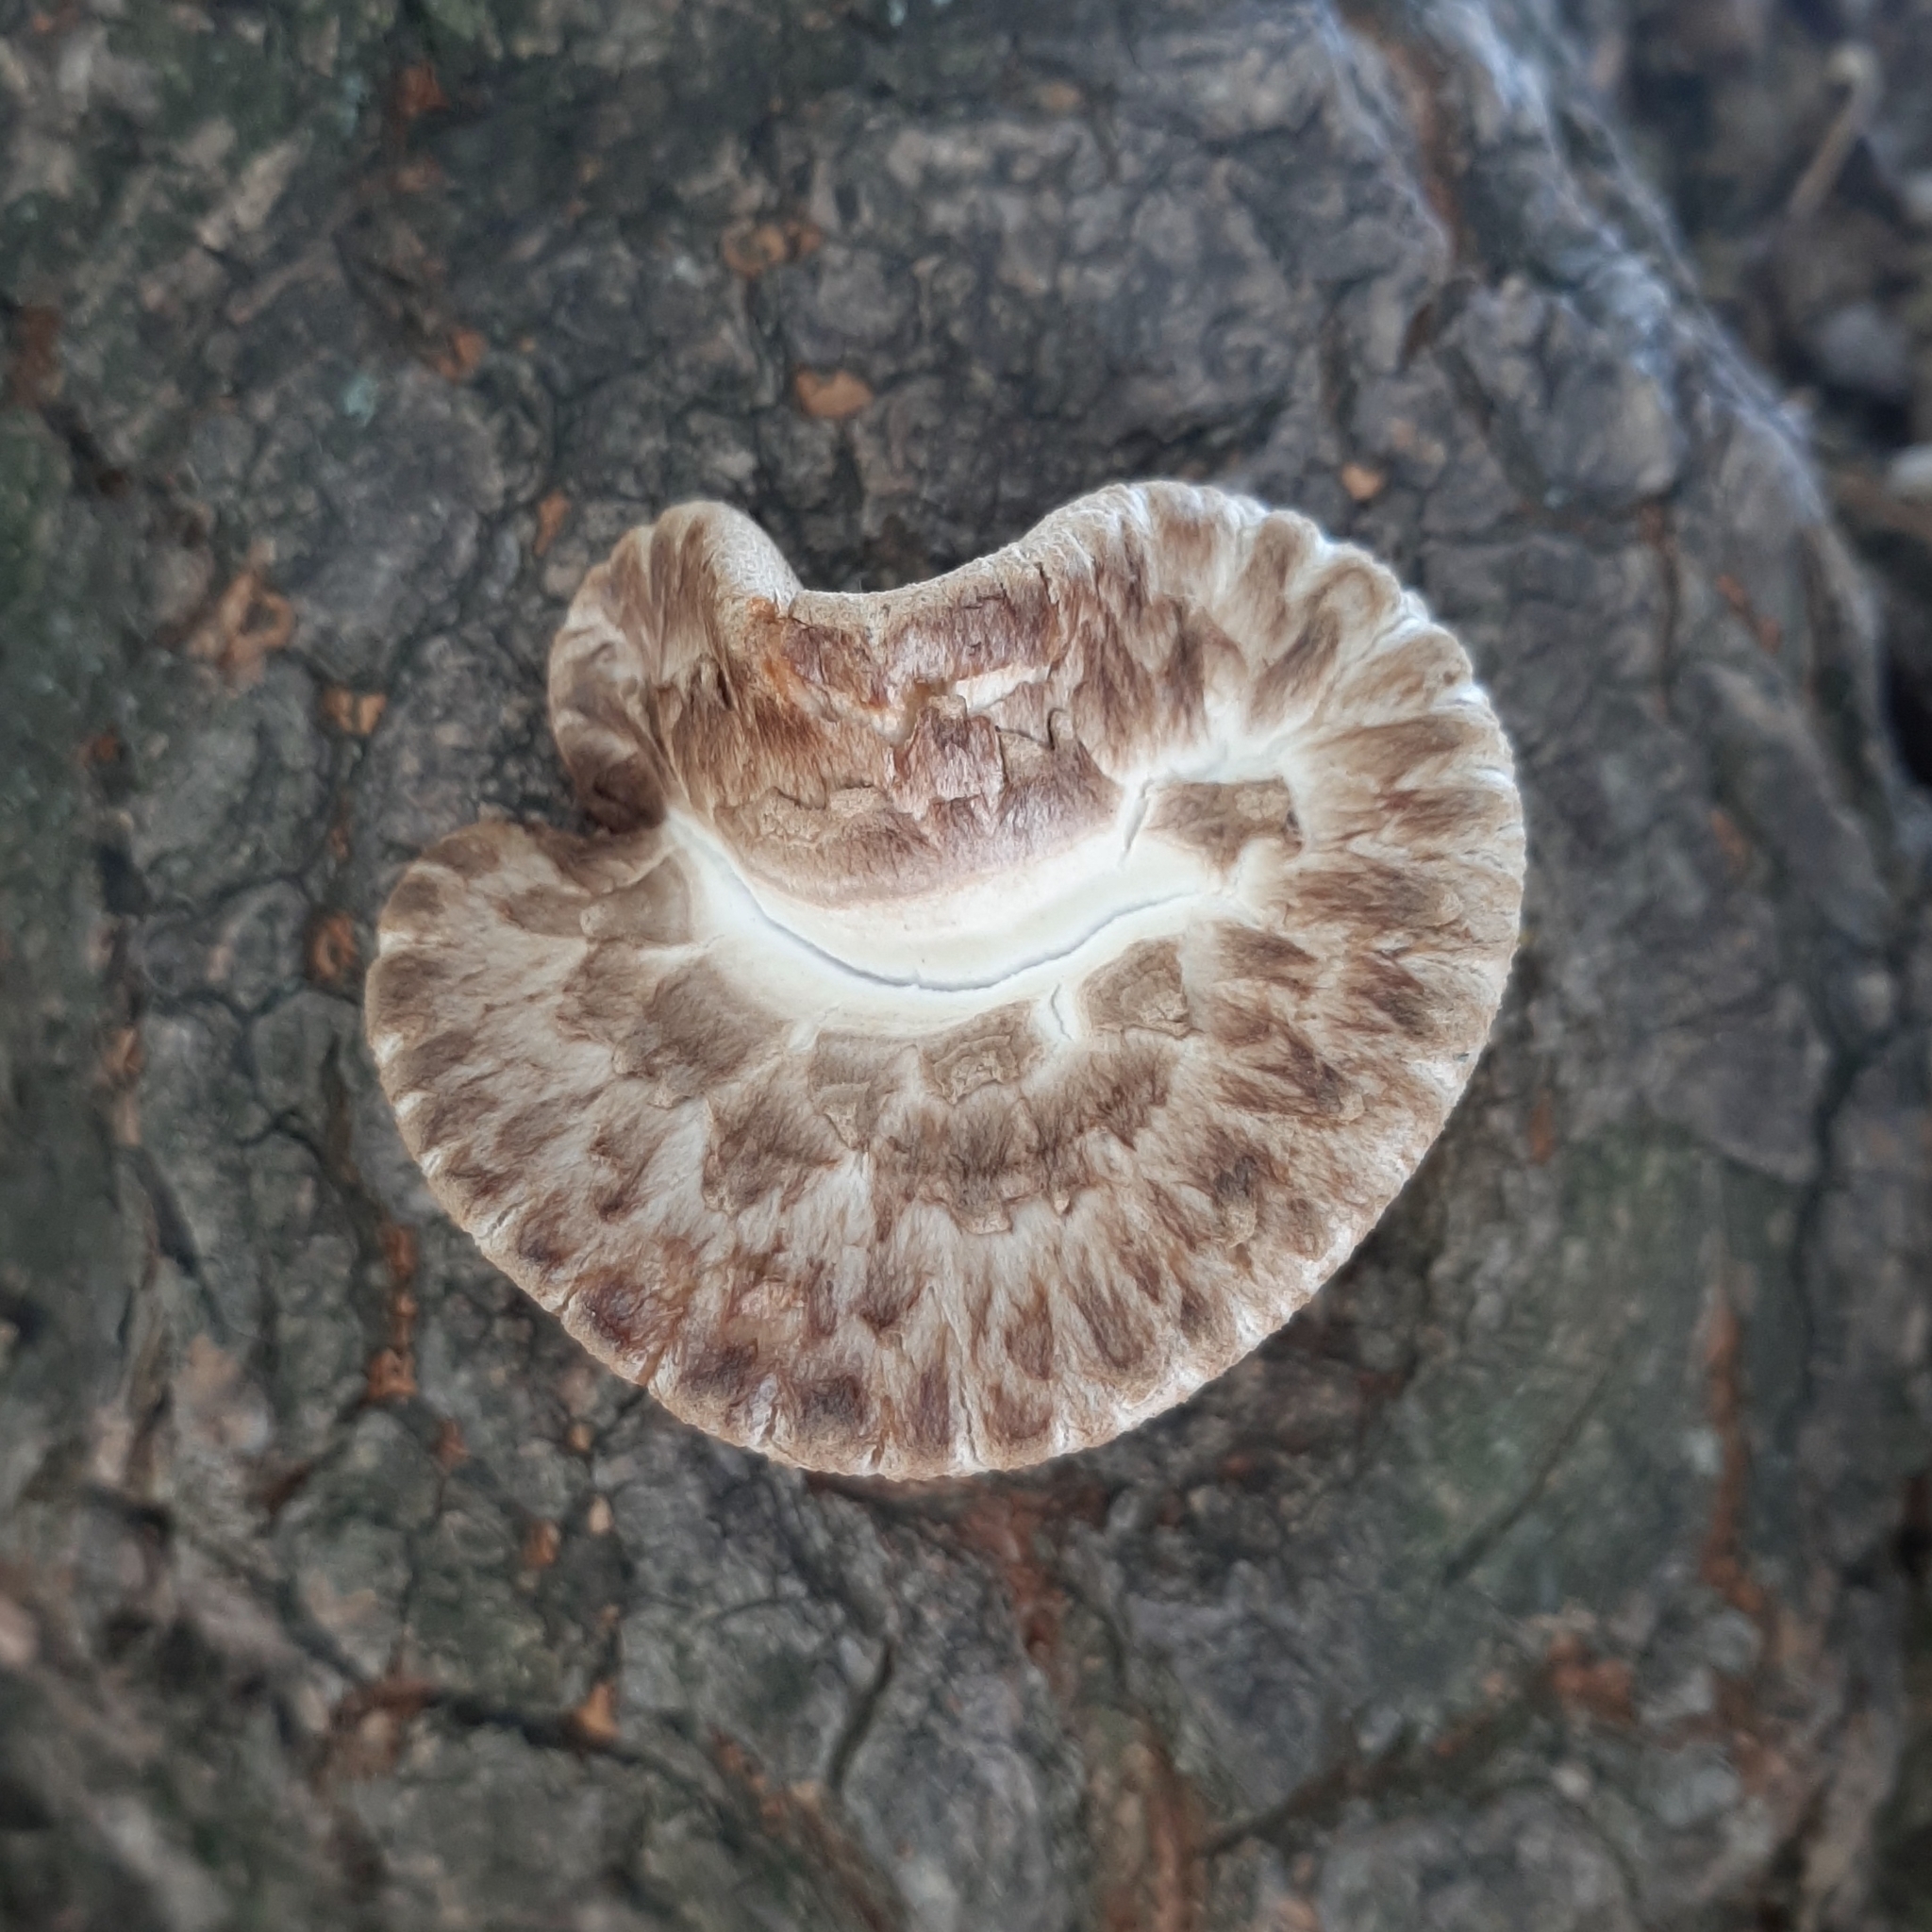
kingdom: Fungi
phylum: Basidiomycota
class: Agaricomycetes
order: Polyporales
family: Polyporaceae
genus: Cerioporus
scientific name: Cerioporus squamosus
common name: Dryad's saddle
